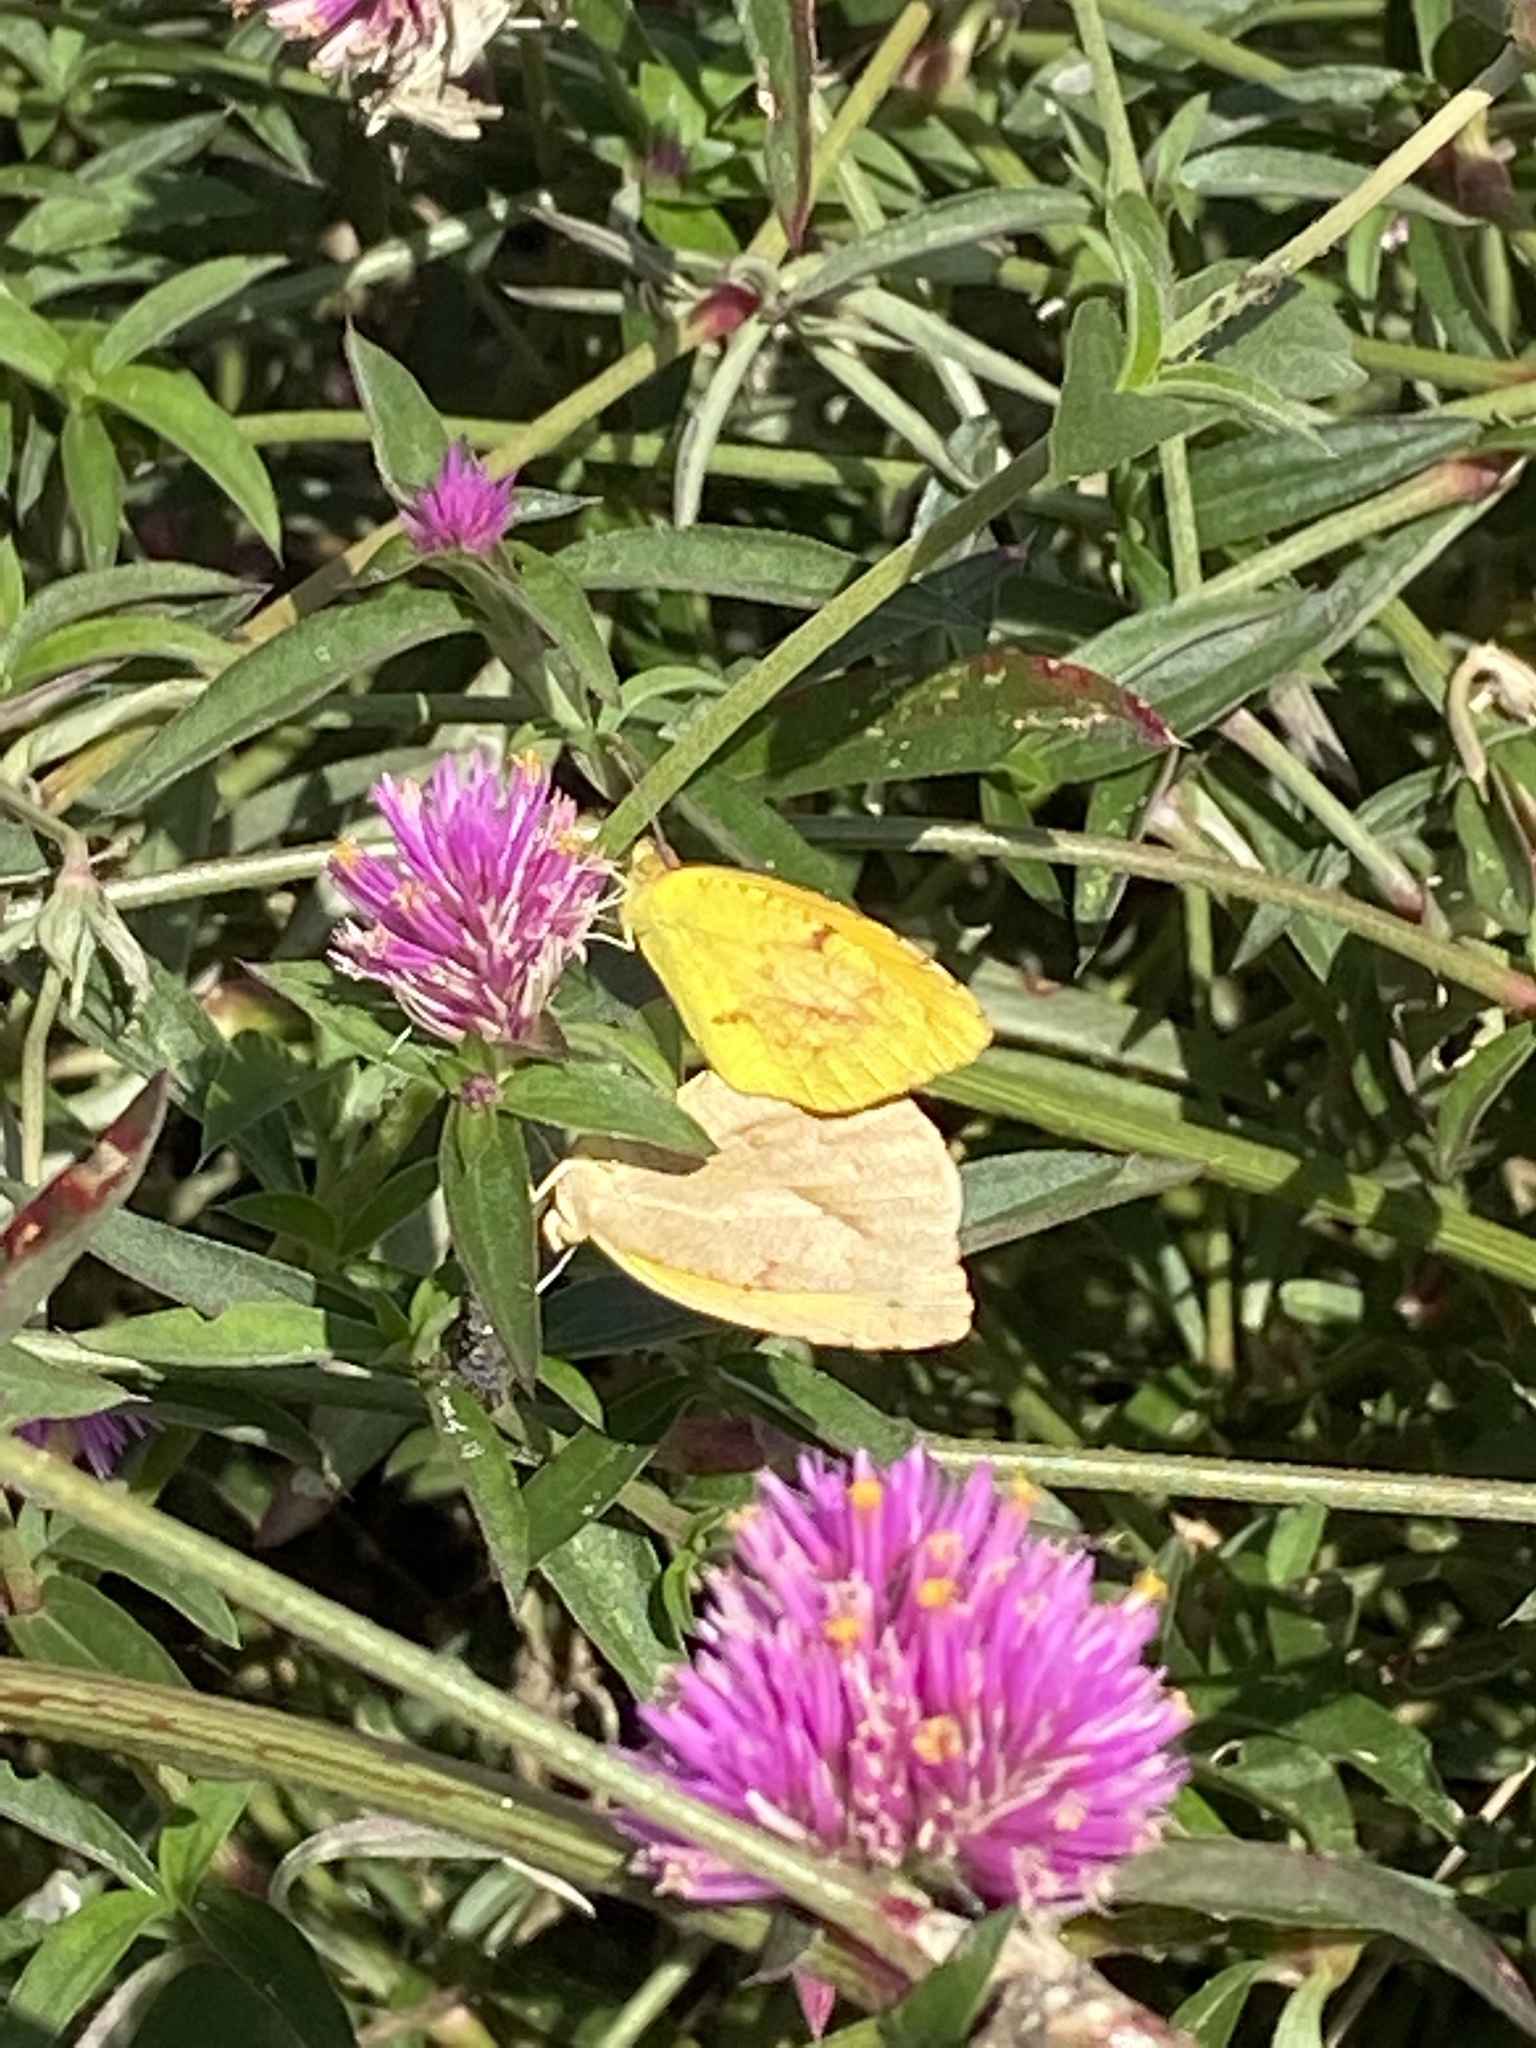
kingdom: Animalia
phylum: Arthropoda
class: Insecta
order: Lepidoptera
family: Pieridae
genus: Abaeis
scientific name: Abaeis nicippe
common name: Sleepy orange
